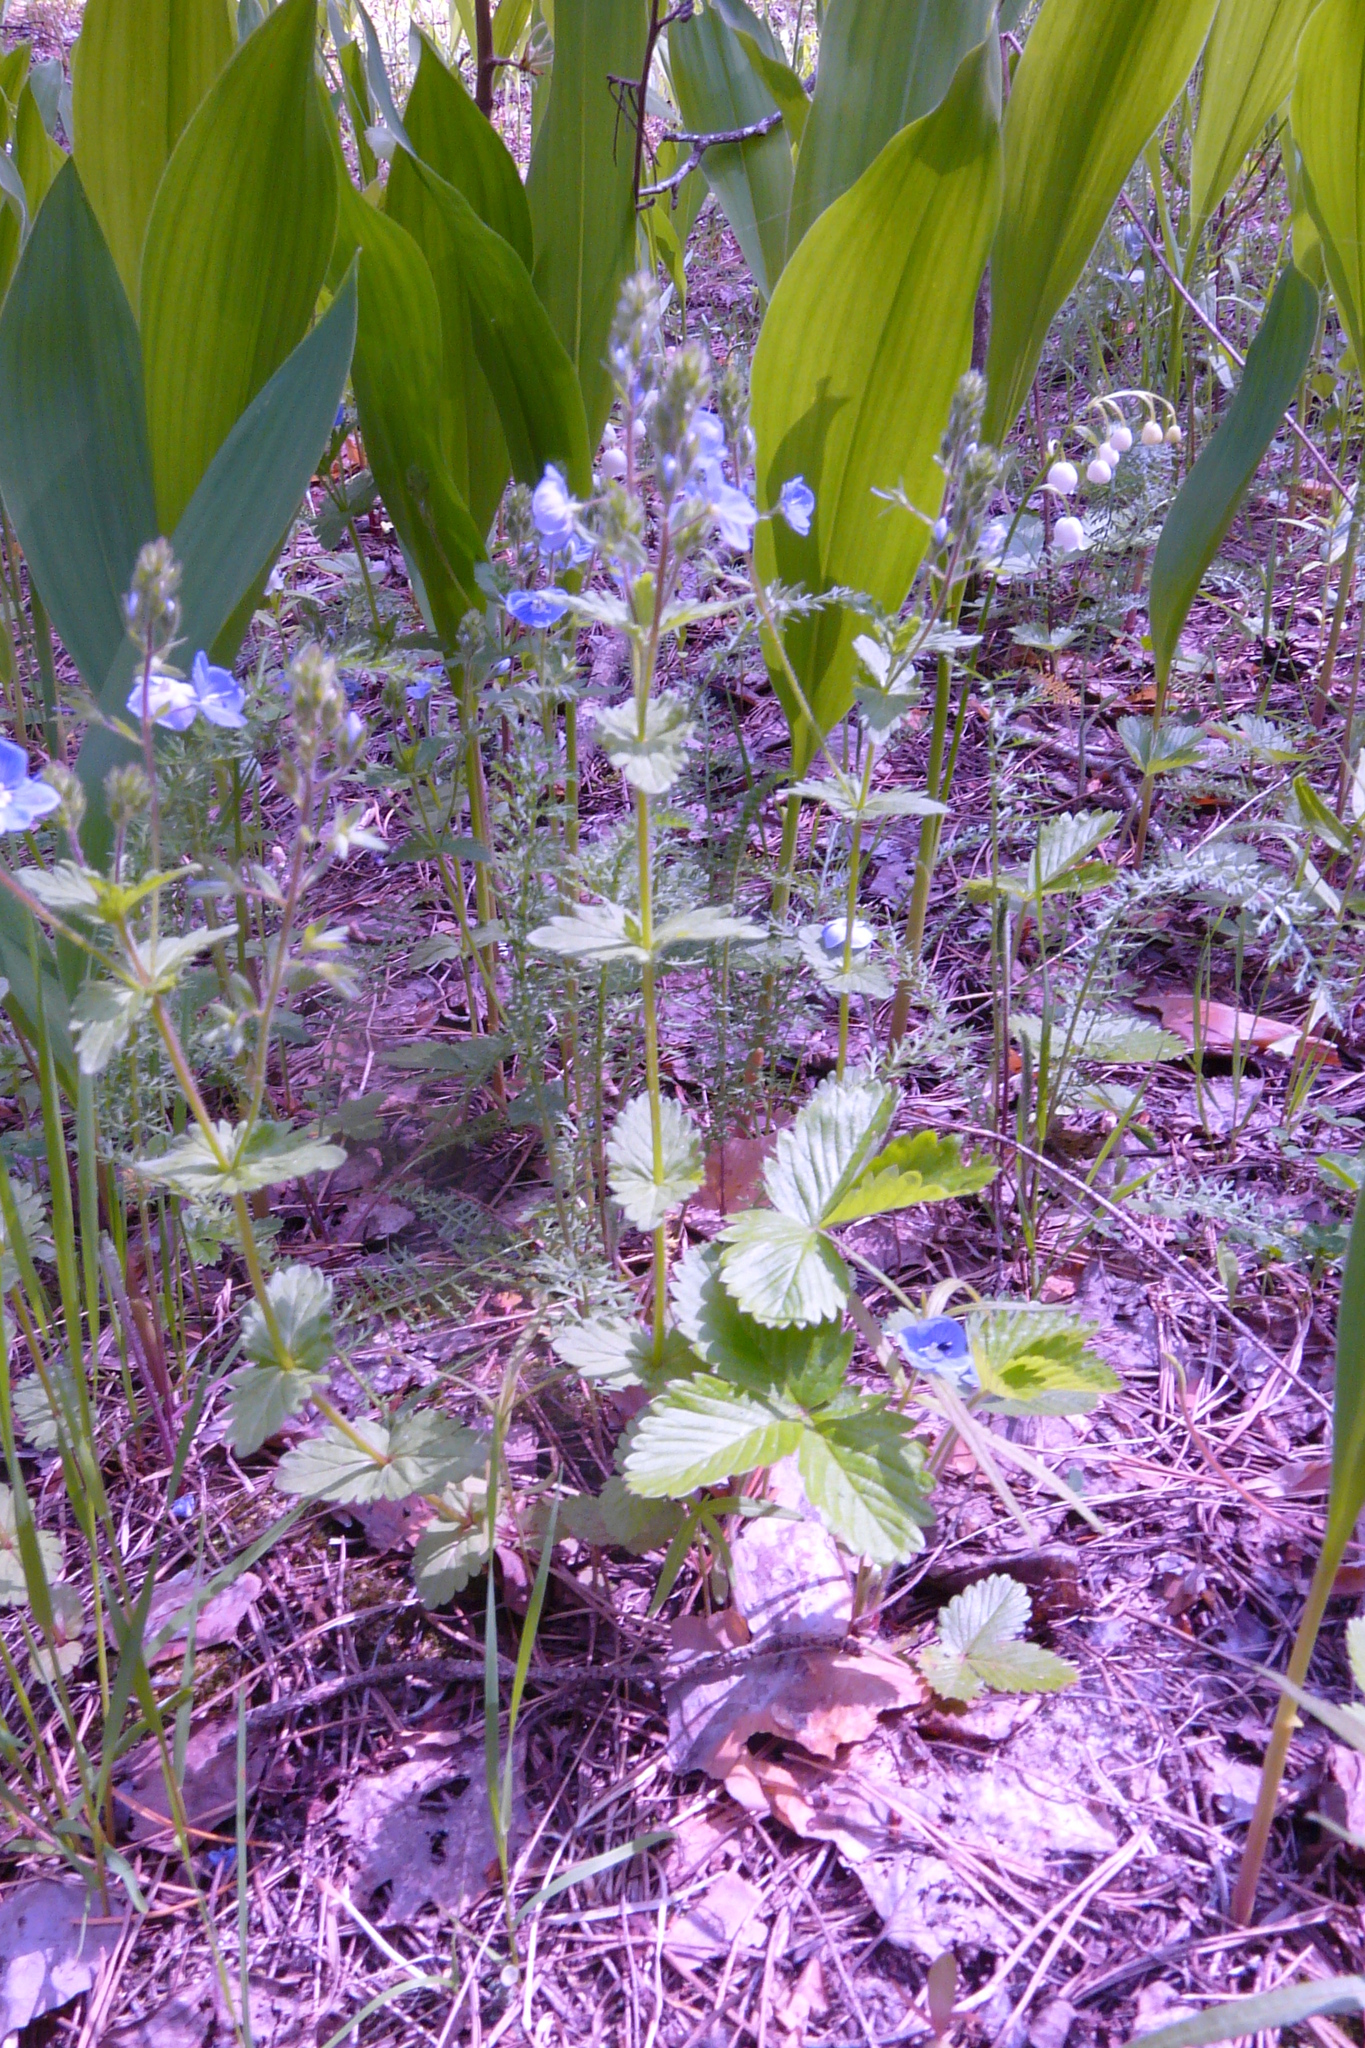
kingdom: Plantae
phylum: Tracheophyta
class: Magnoliopsida
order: Lamiales
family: Plantaginaceae
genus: Veronica
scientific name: Veronica chamaedrys
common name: Germander speedwell
